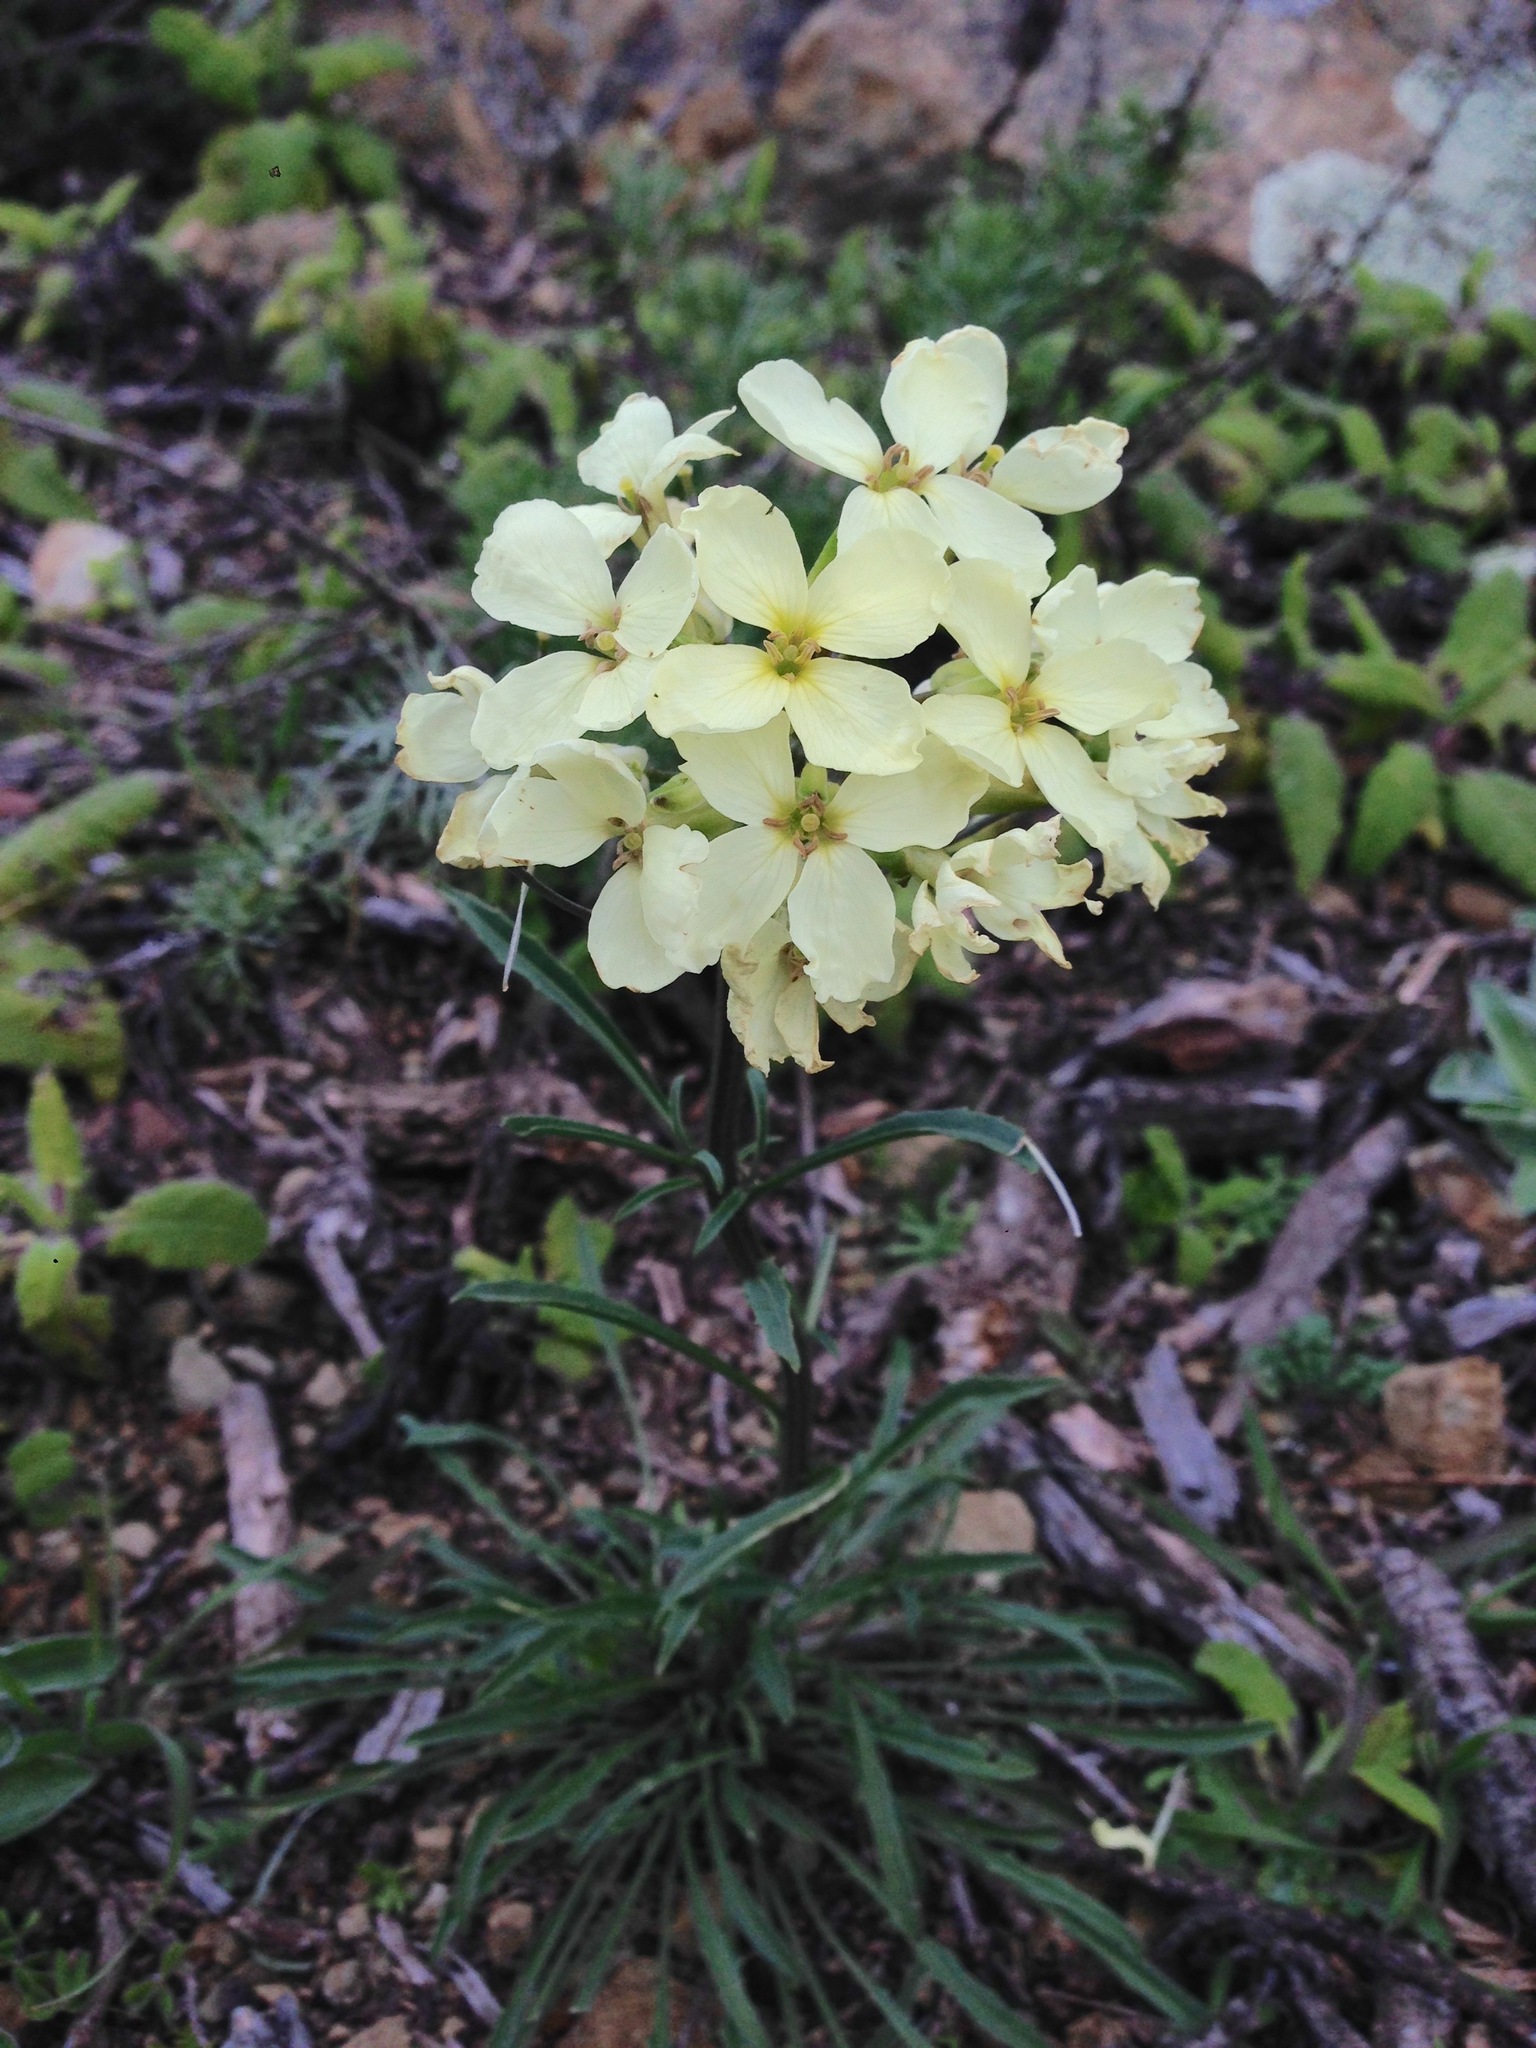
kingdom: Plantae
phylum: Tracheophyta
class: Magnoliopsida
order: Brassicales
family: Brassicaceae
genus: Erysimum
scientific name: Erysimum franciscanum
